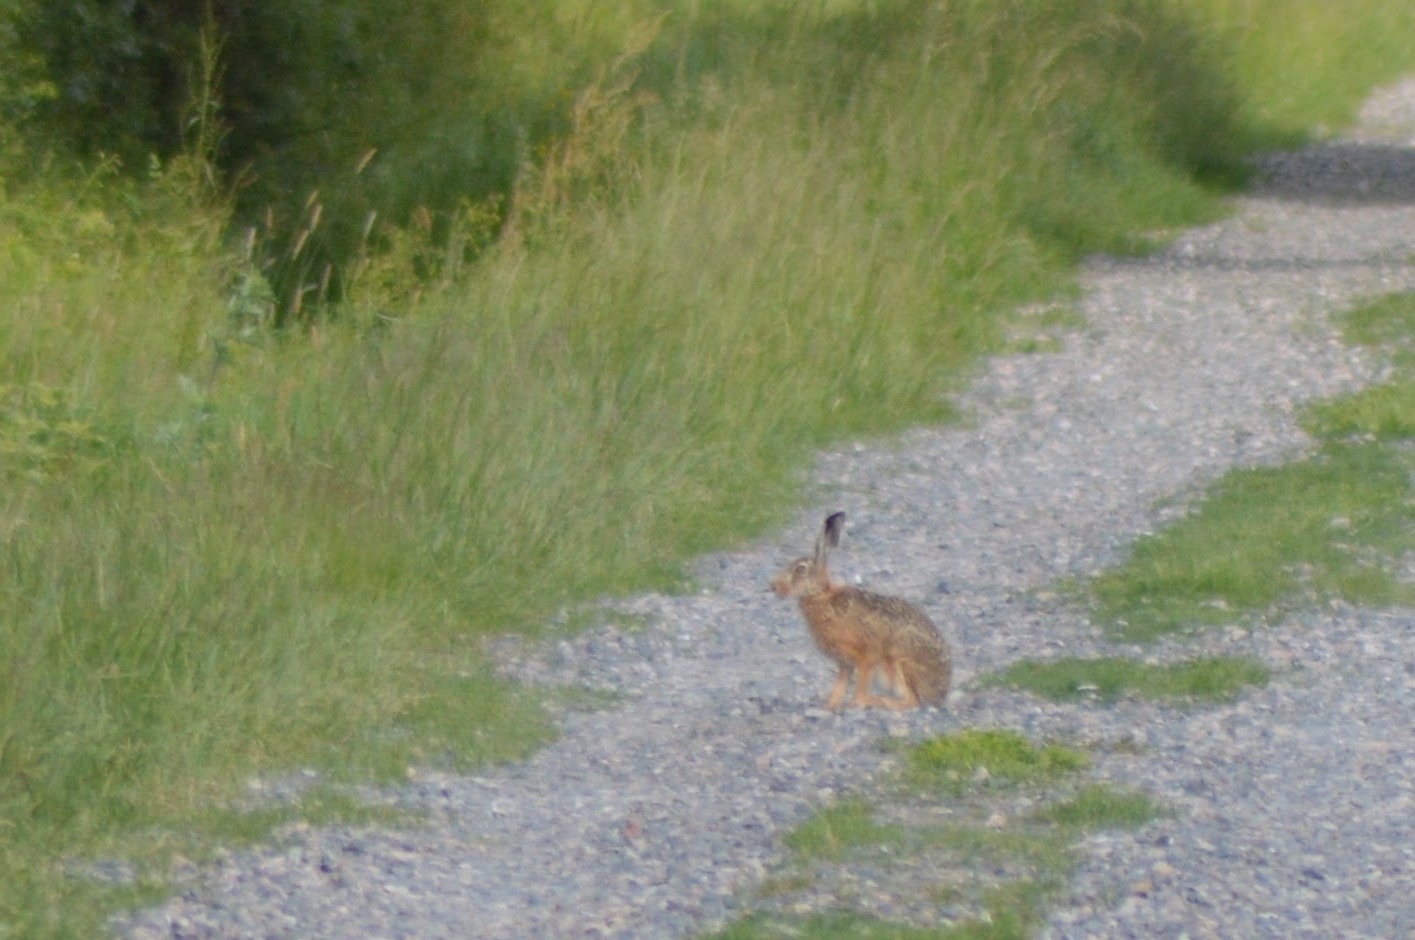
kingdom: Animalia
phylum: Chordata
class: Mammalia
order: Lagomorpha
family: Leporidae
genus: Lepus
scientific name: Lepus europaeus
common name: European hare
